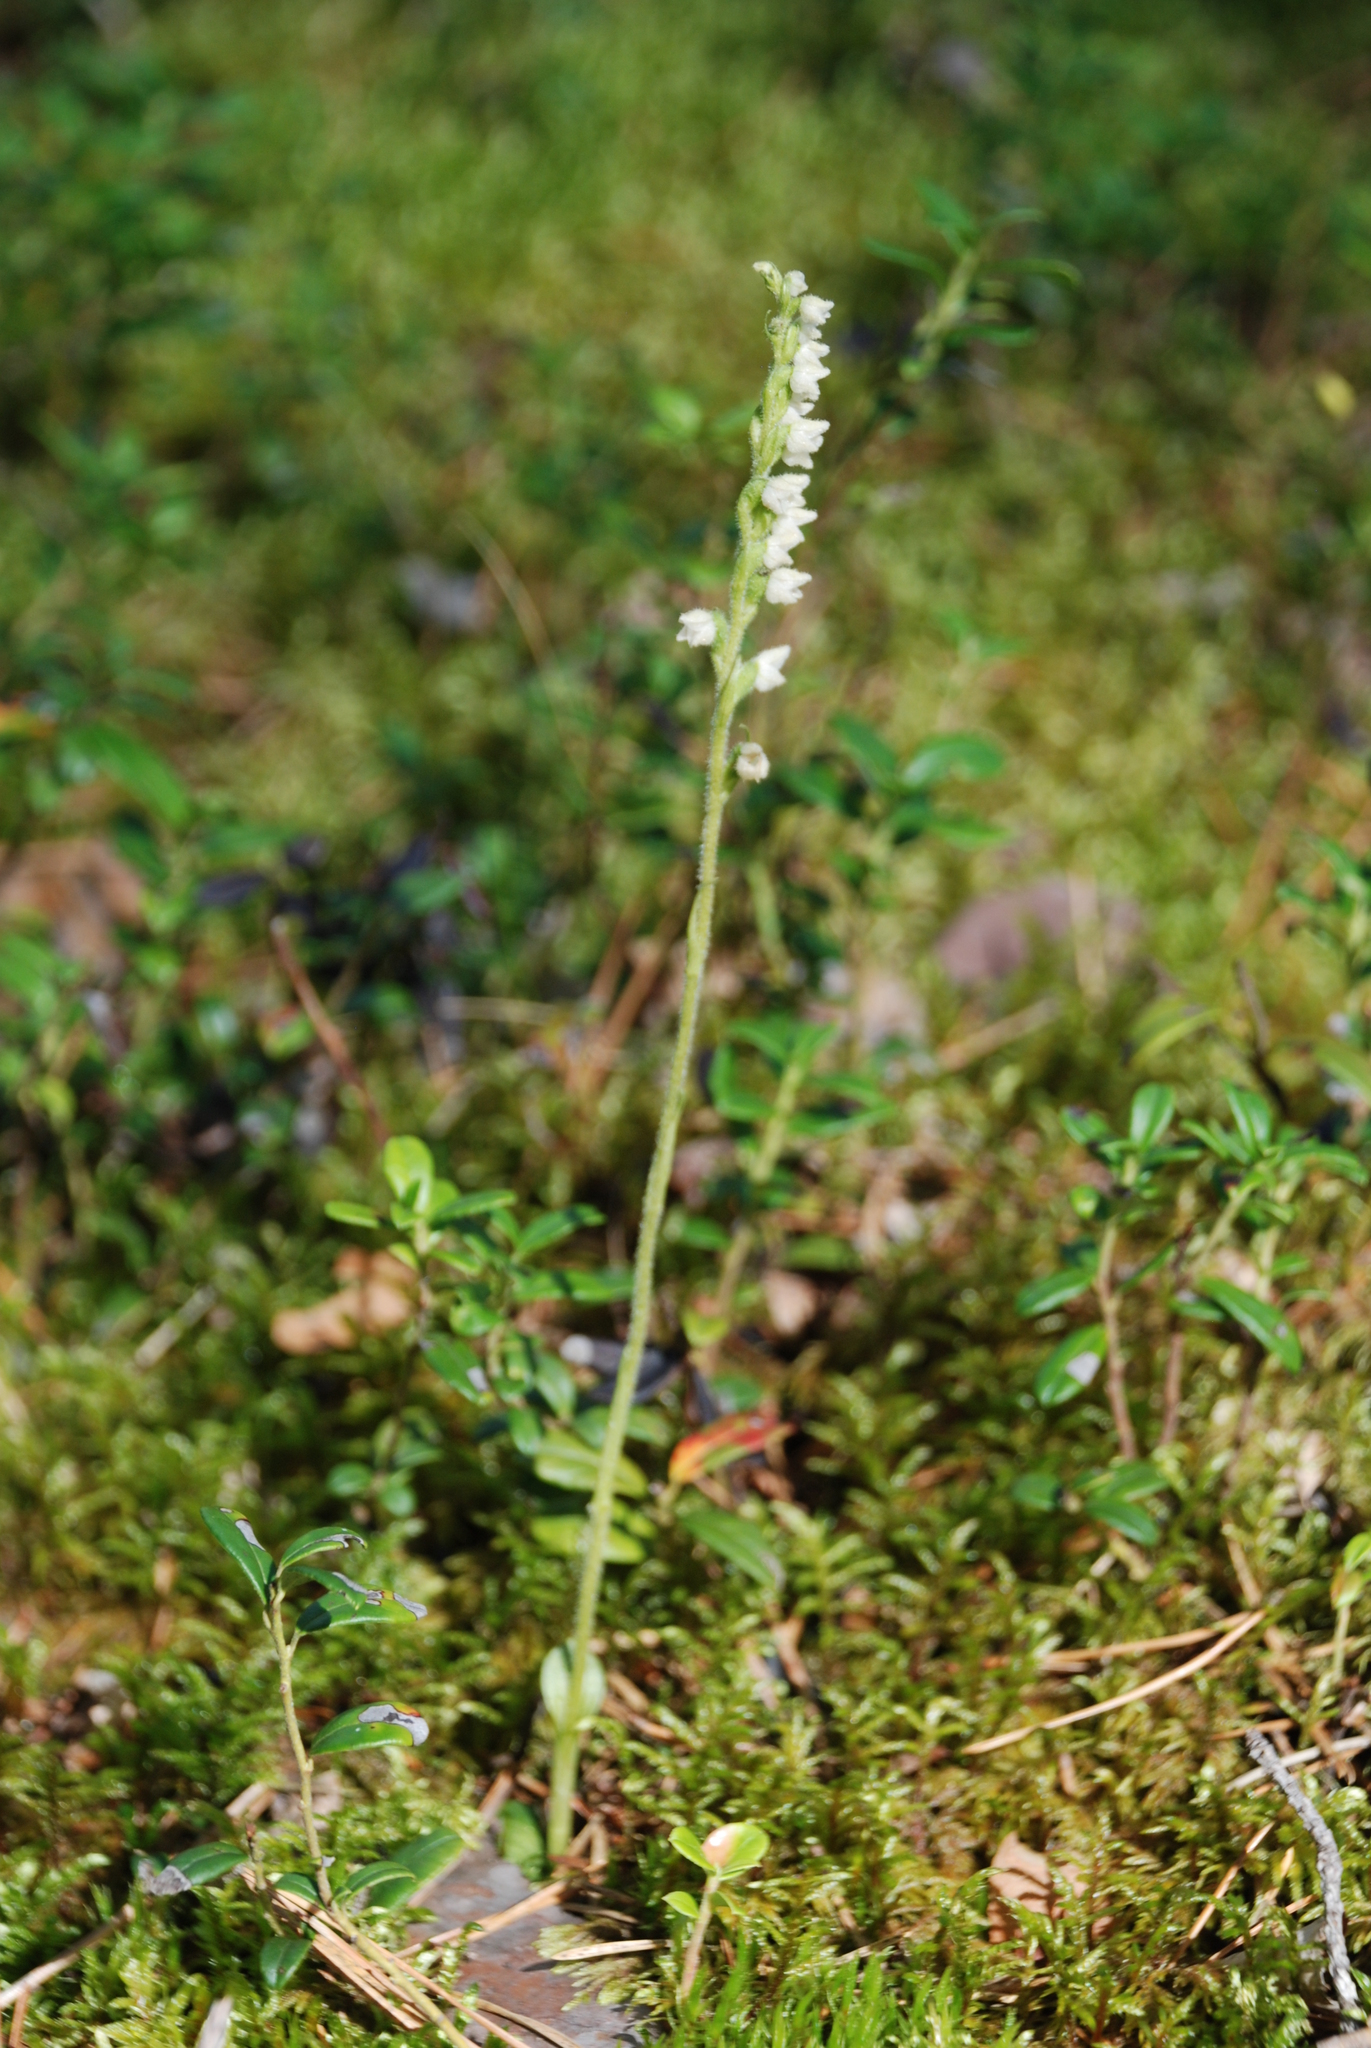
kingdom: Plantae
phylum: Tracheophyta
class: Liliopsida
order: Asparagales
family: Orchidaceae
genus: Goodyera
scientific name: Goodyera repens
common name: Creeping lady's-tresses
